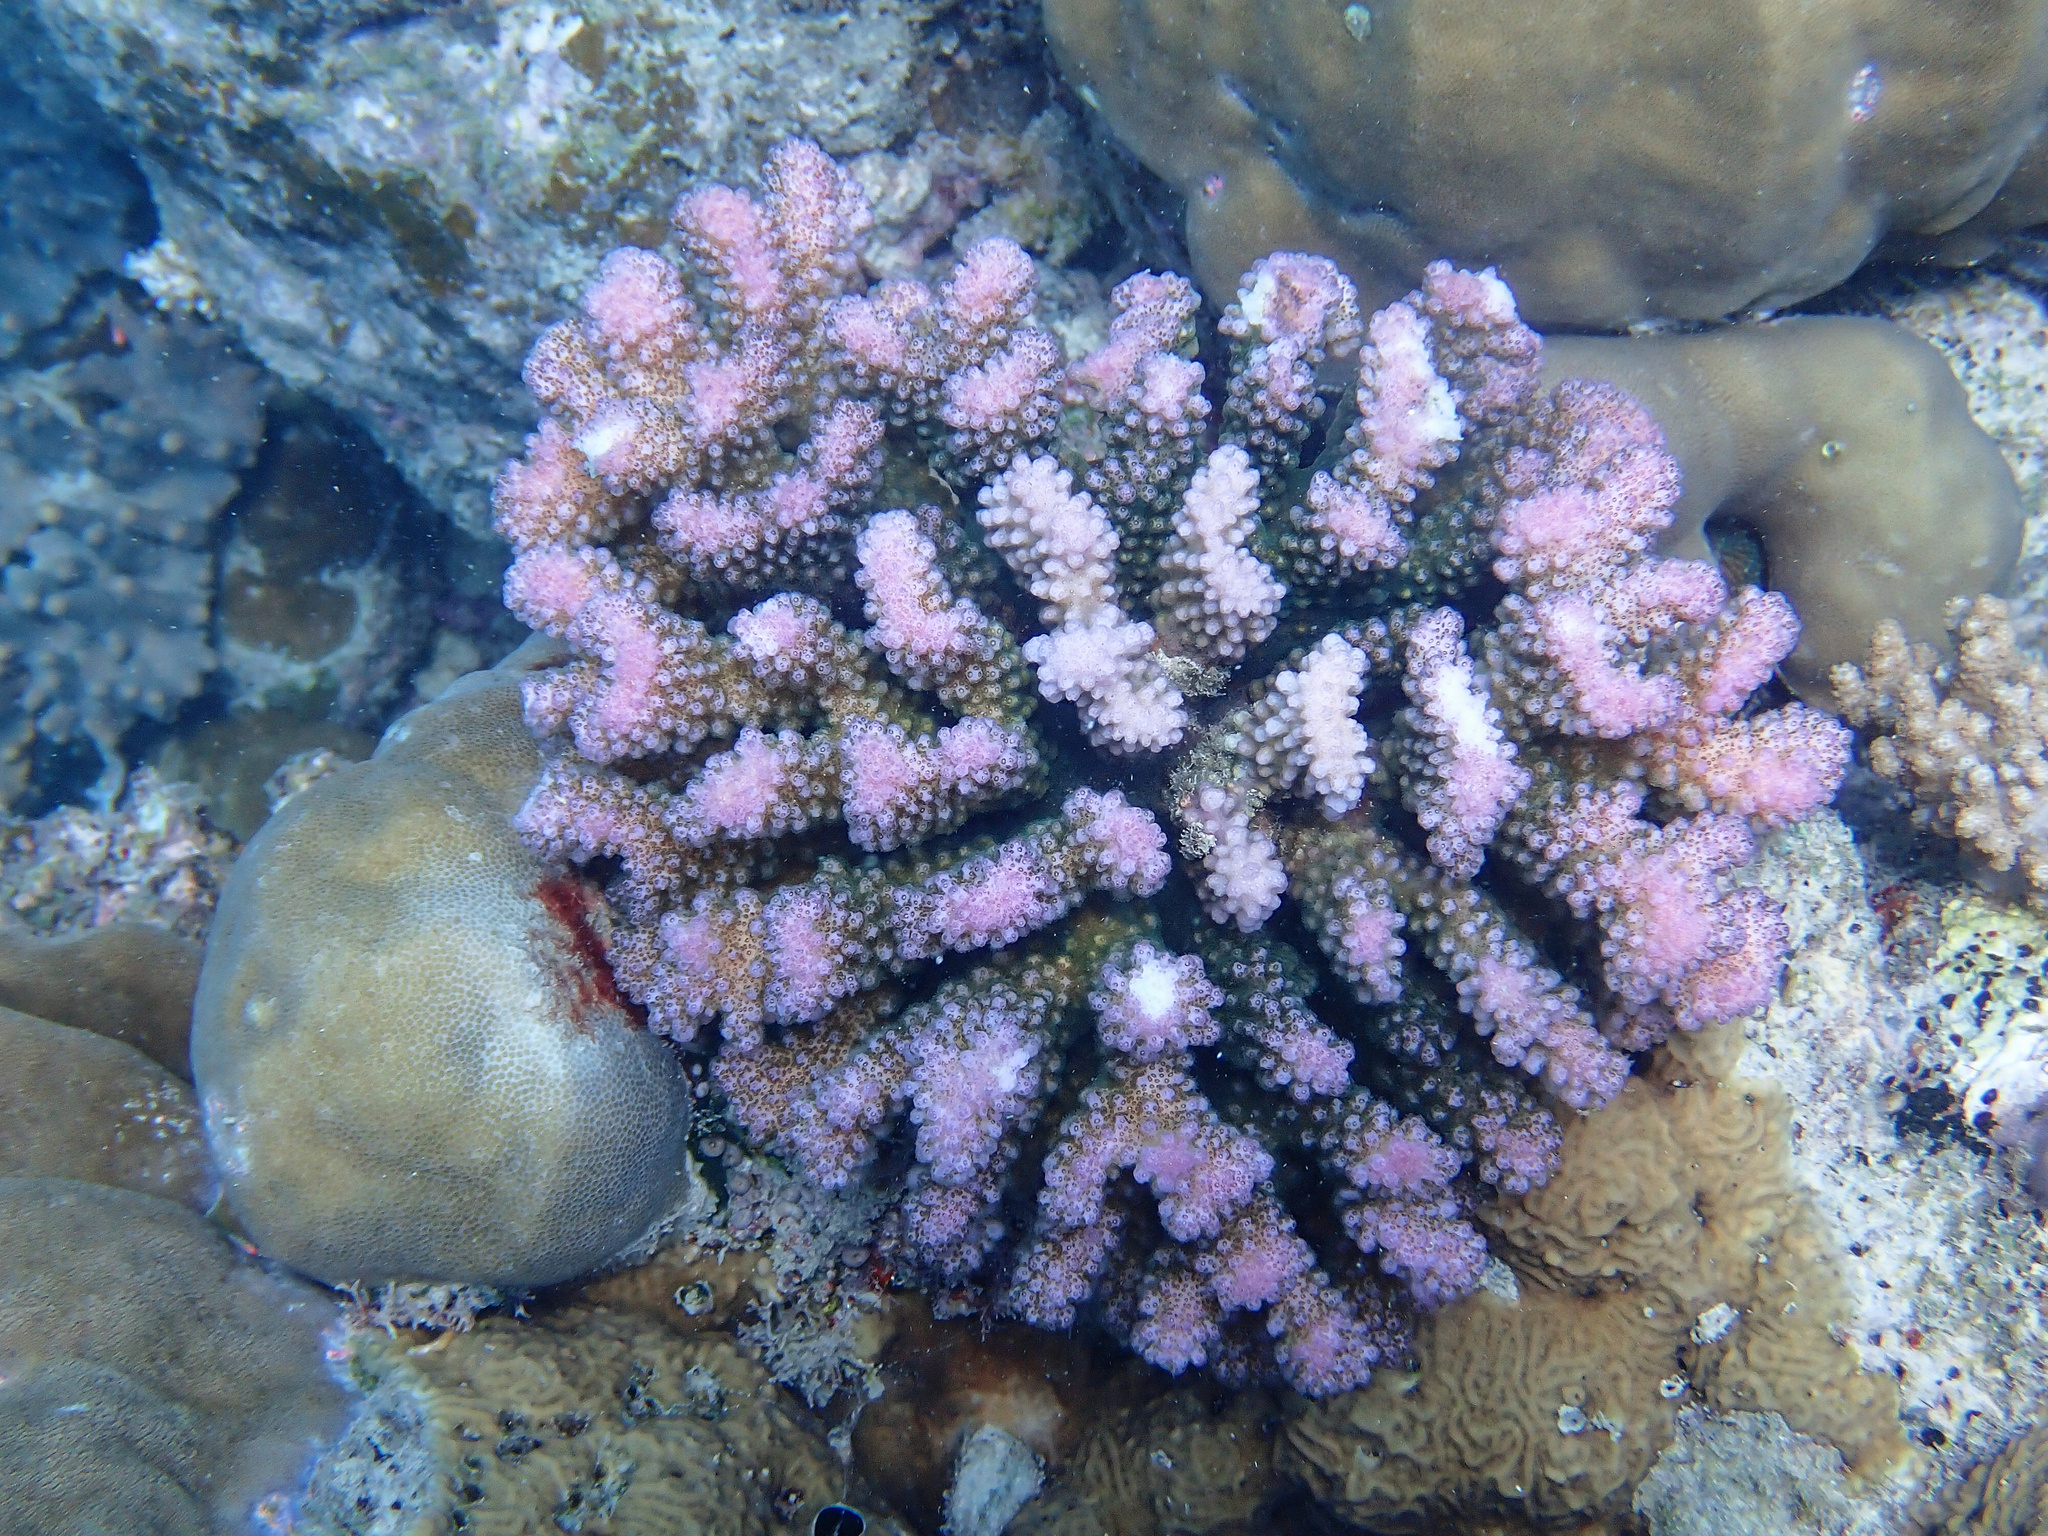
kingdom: Animalia
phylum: Cnidaria
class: Anthozoa
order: Scleractinia
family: Pocilloporidae
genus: Pocillopora
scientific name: Pocillopora verrucosa
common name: Cauliflower coral
